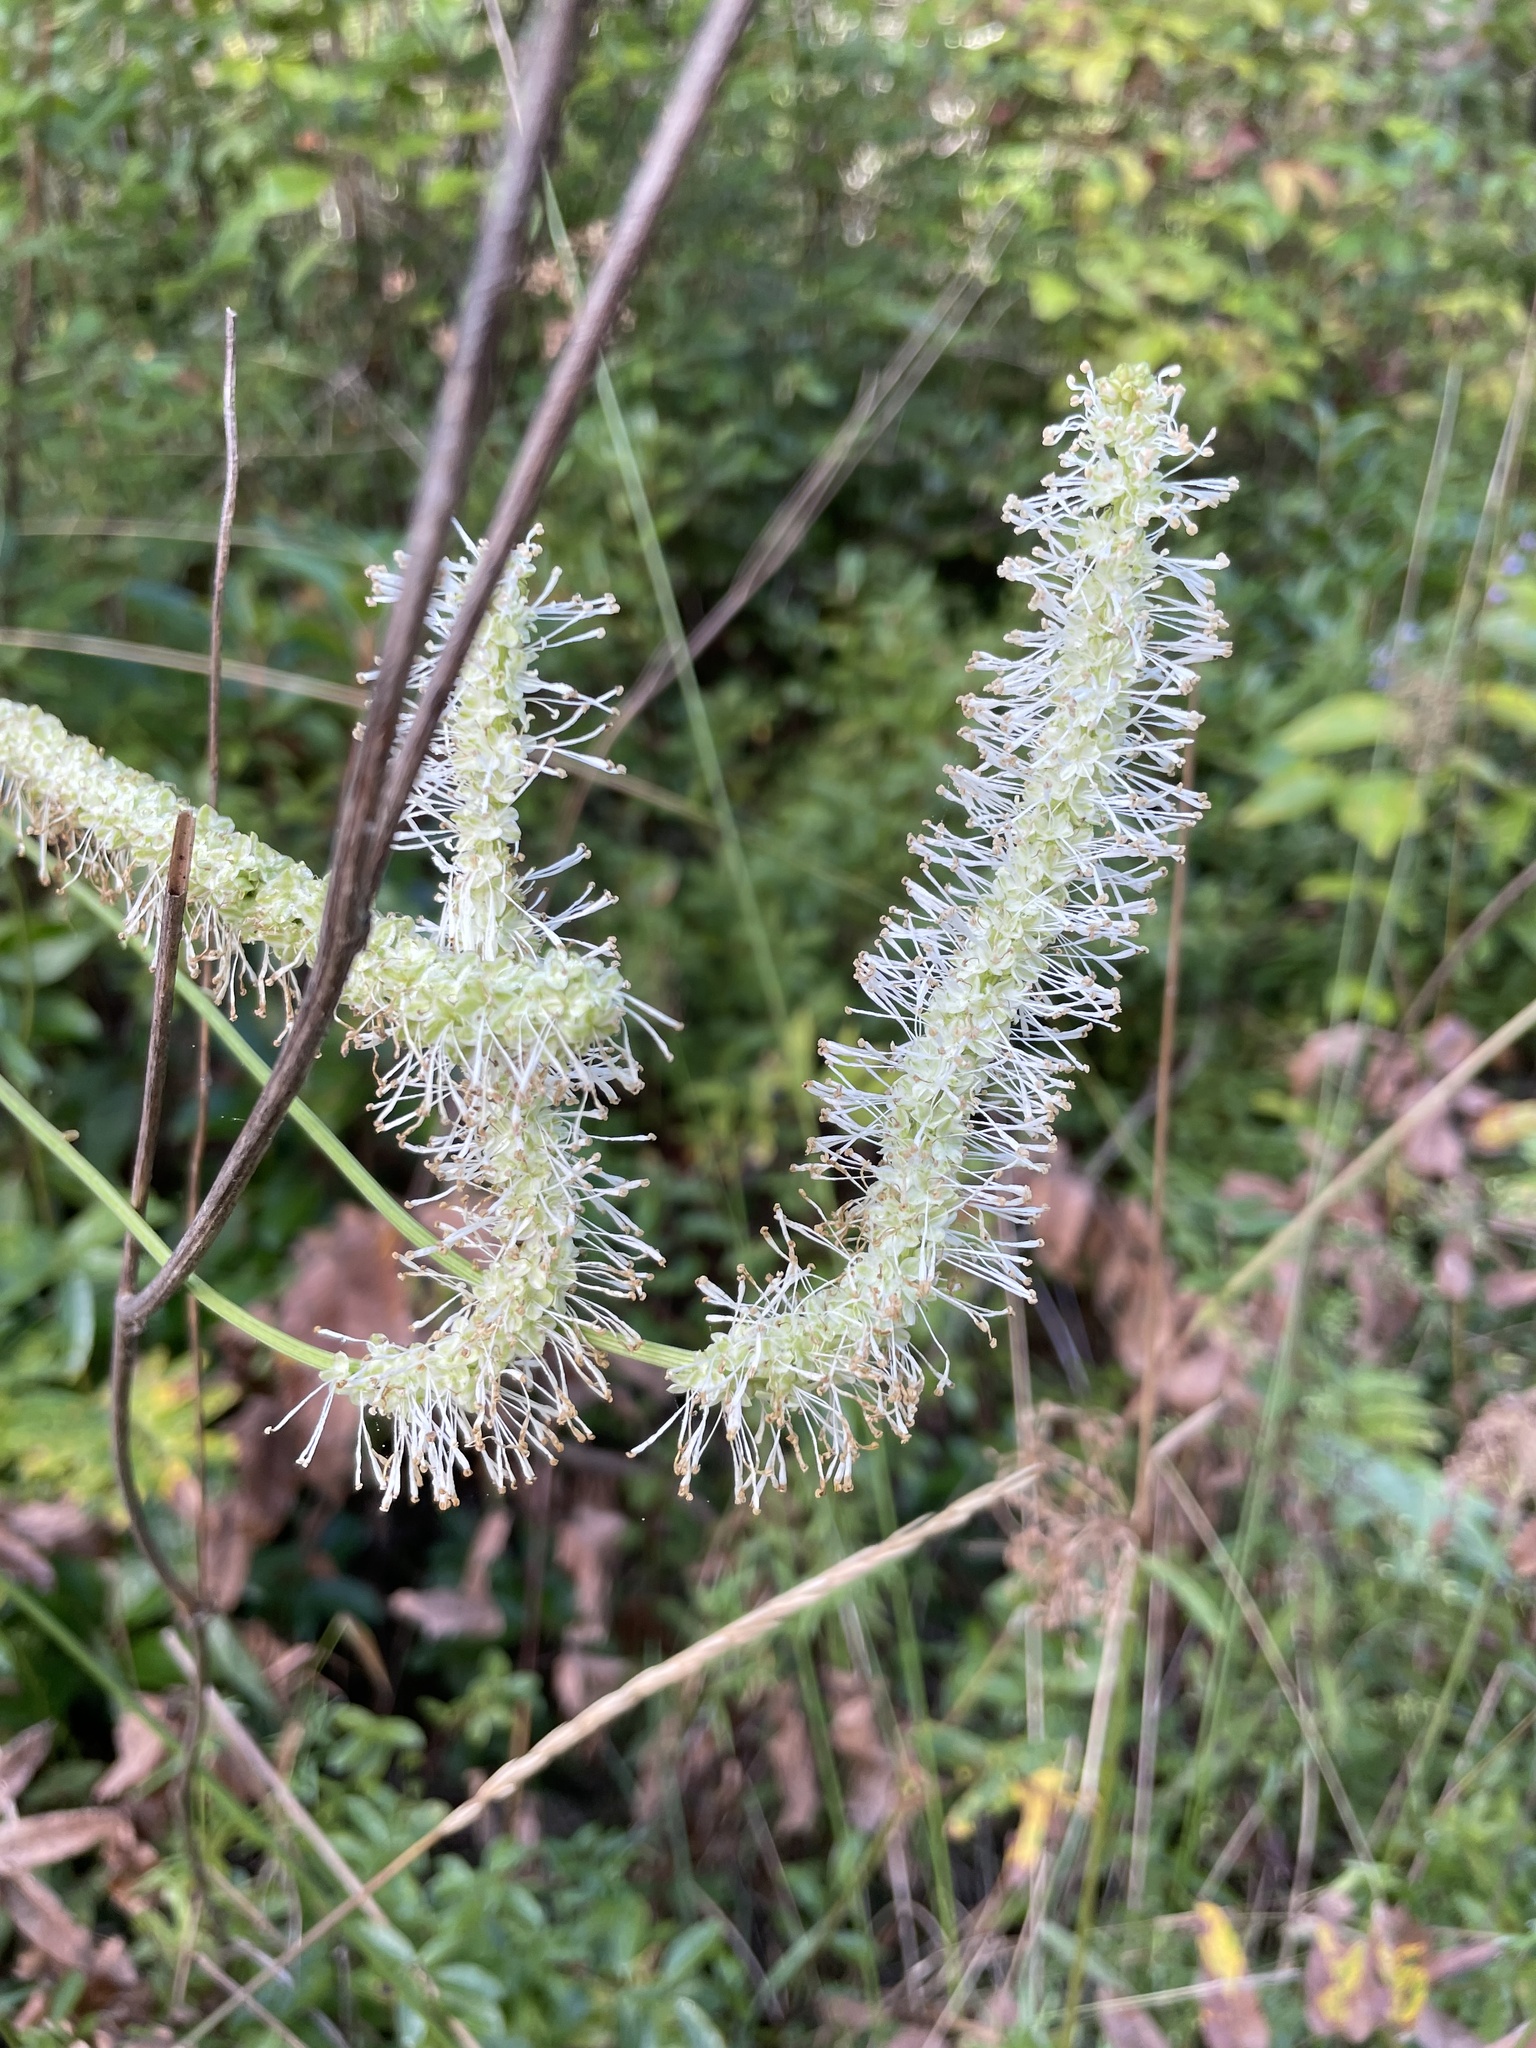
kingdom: Plantae
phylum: Tracheophyta
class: Magnoliopsida
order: Rosales
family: Rosaceae
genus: Sanguisorba
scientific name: Sanguisorba canadensis
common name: White burnet
